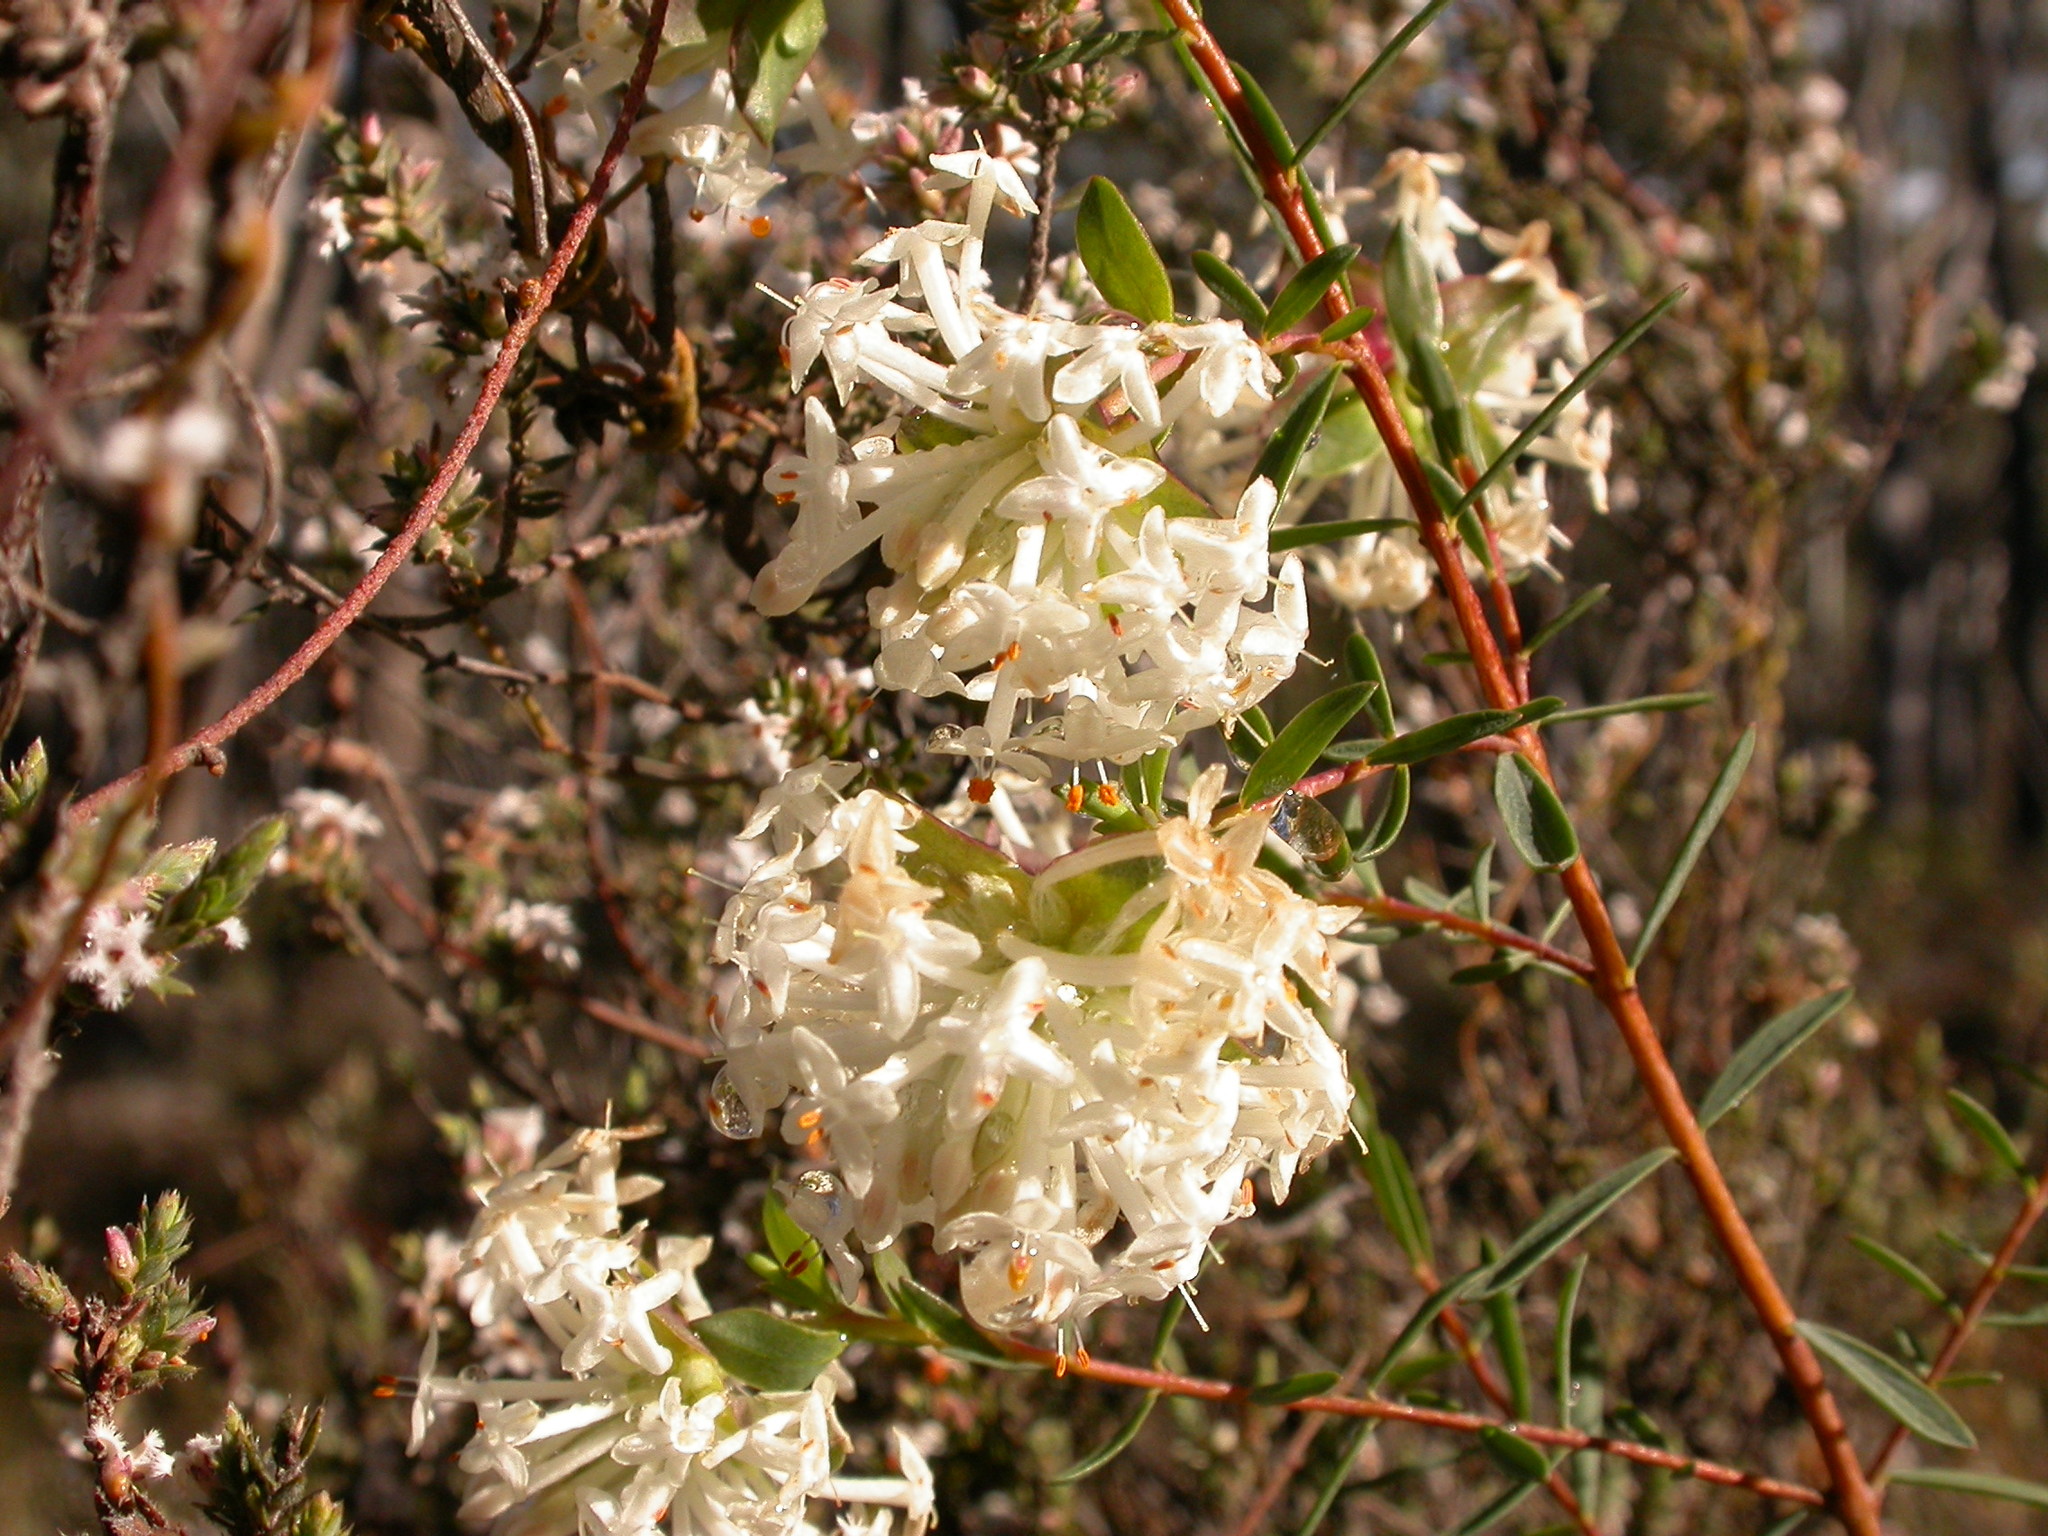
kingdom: Plantae
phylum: Tracheophyta
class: Magnoliopsida
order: Malvales
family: Thymelaeaceae
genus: Pimelea
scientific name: Pimelea linifolia
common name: Queen-of-the-bush
